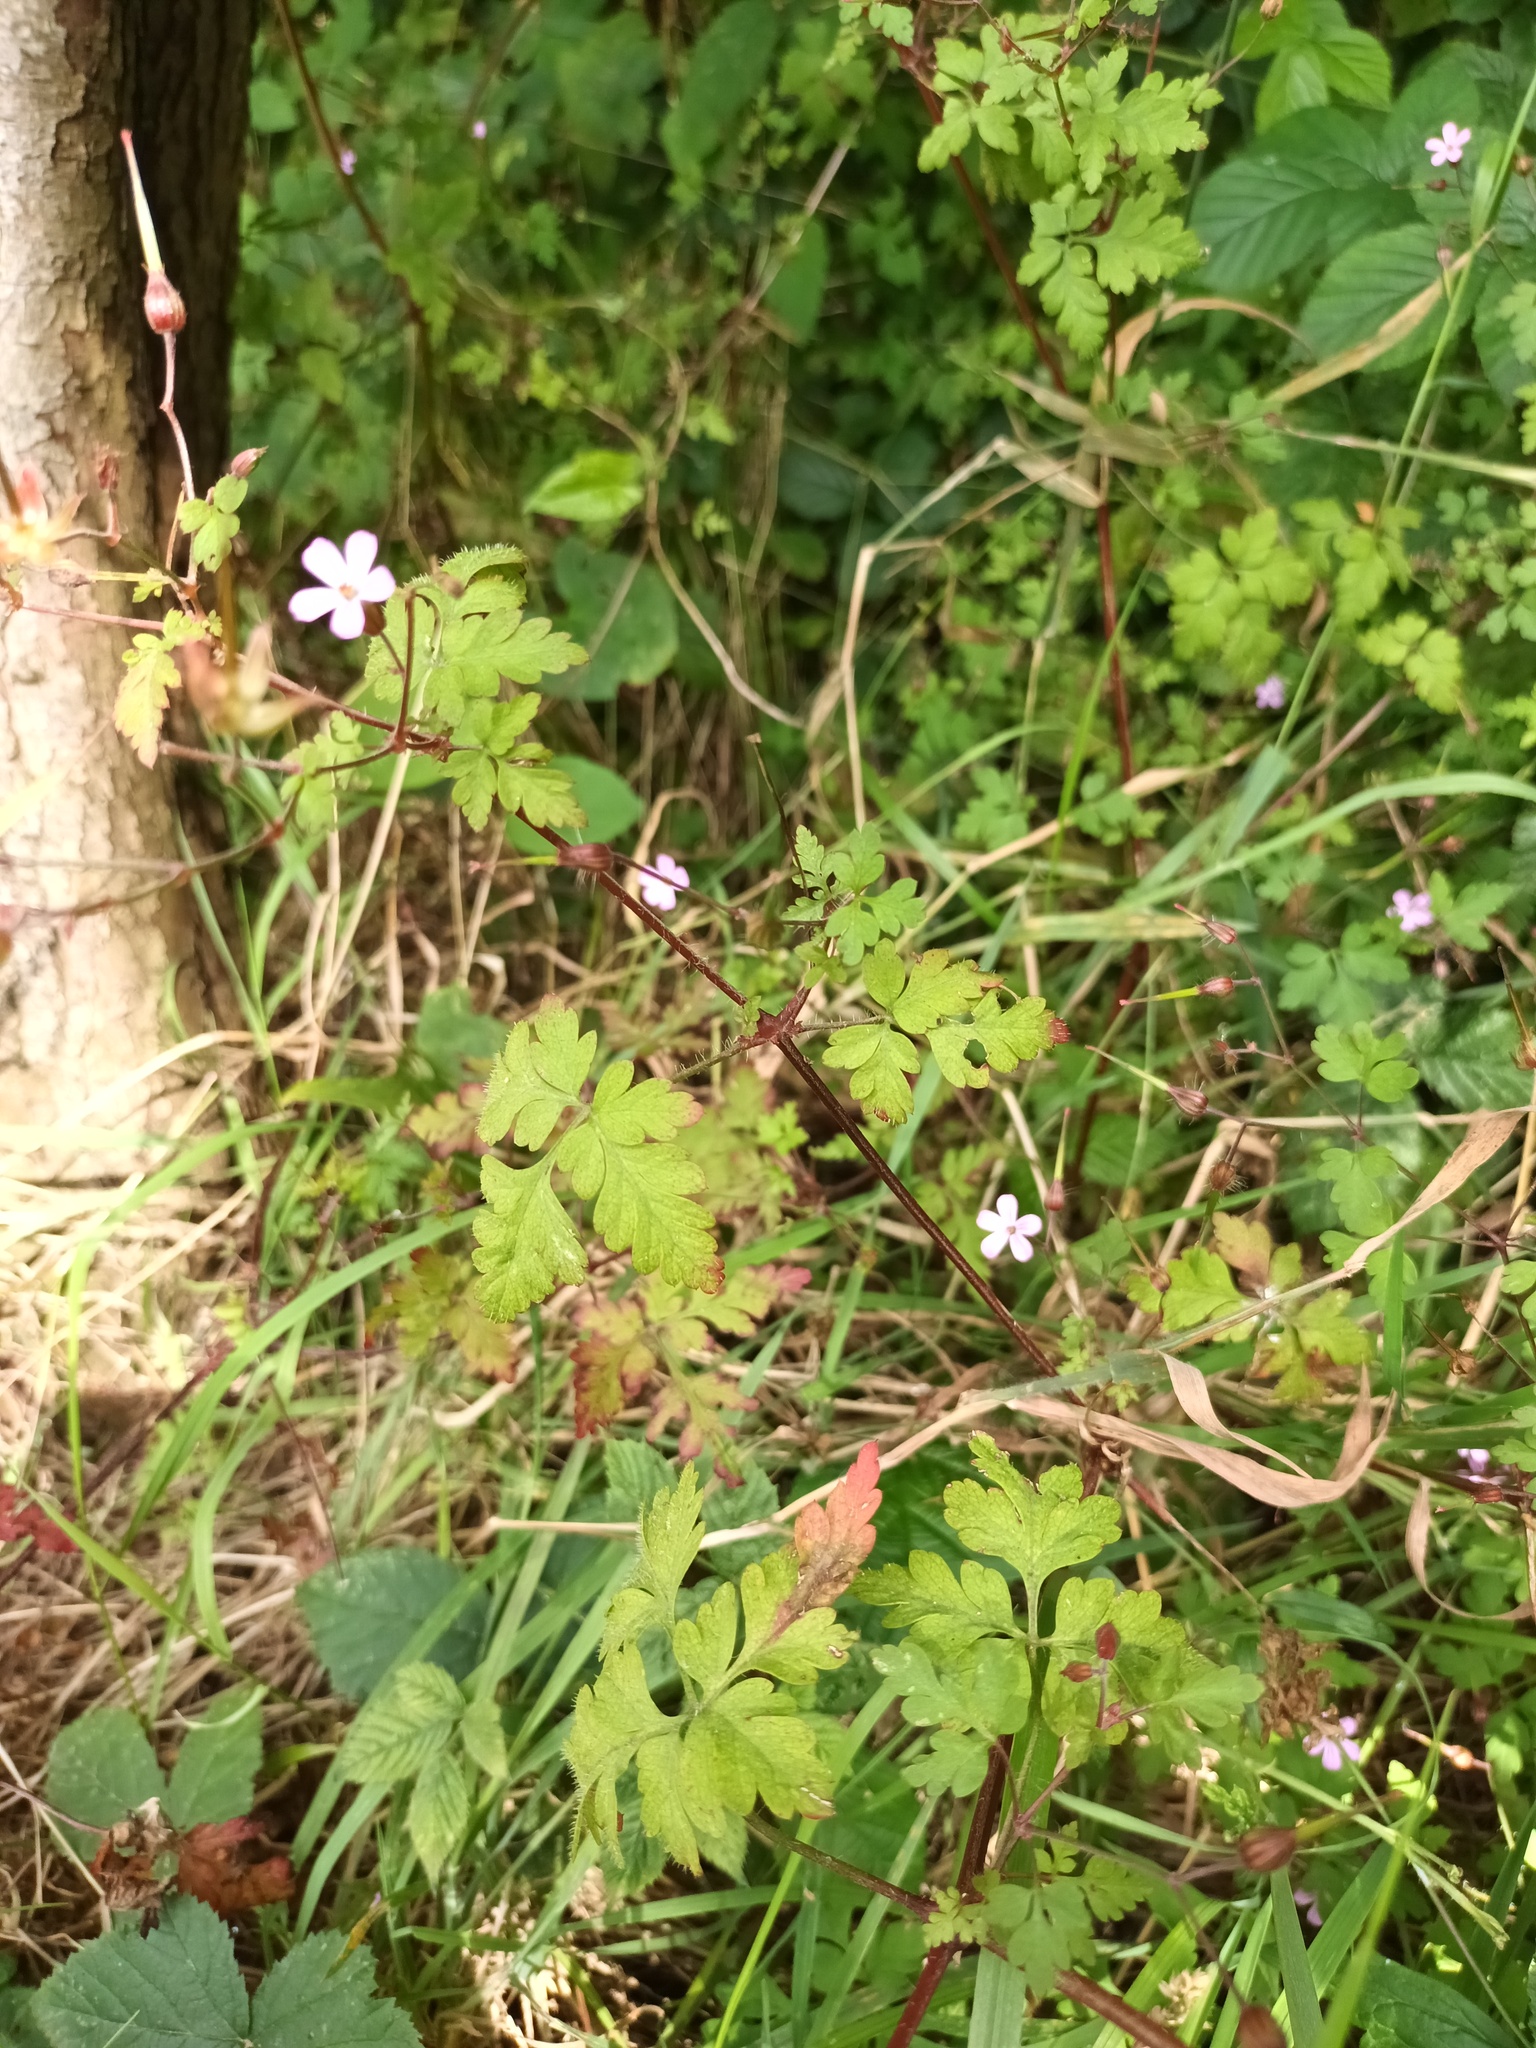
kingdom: Plantae
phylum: Tracheophyta
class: Magnoliopsida
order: Geraniales
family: Geraniaceae
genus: Geranium
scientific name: Geranium robertianum
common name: Herb-robert
